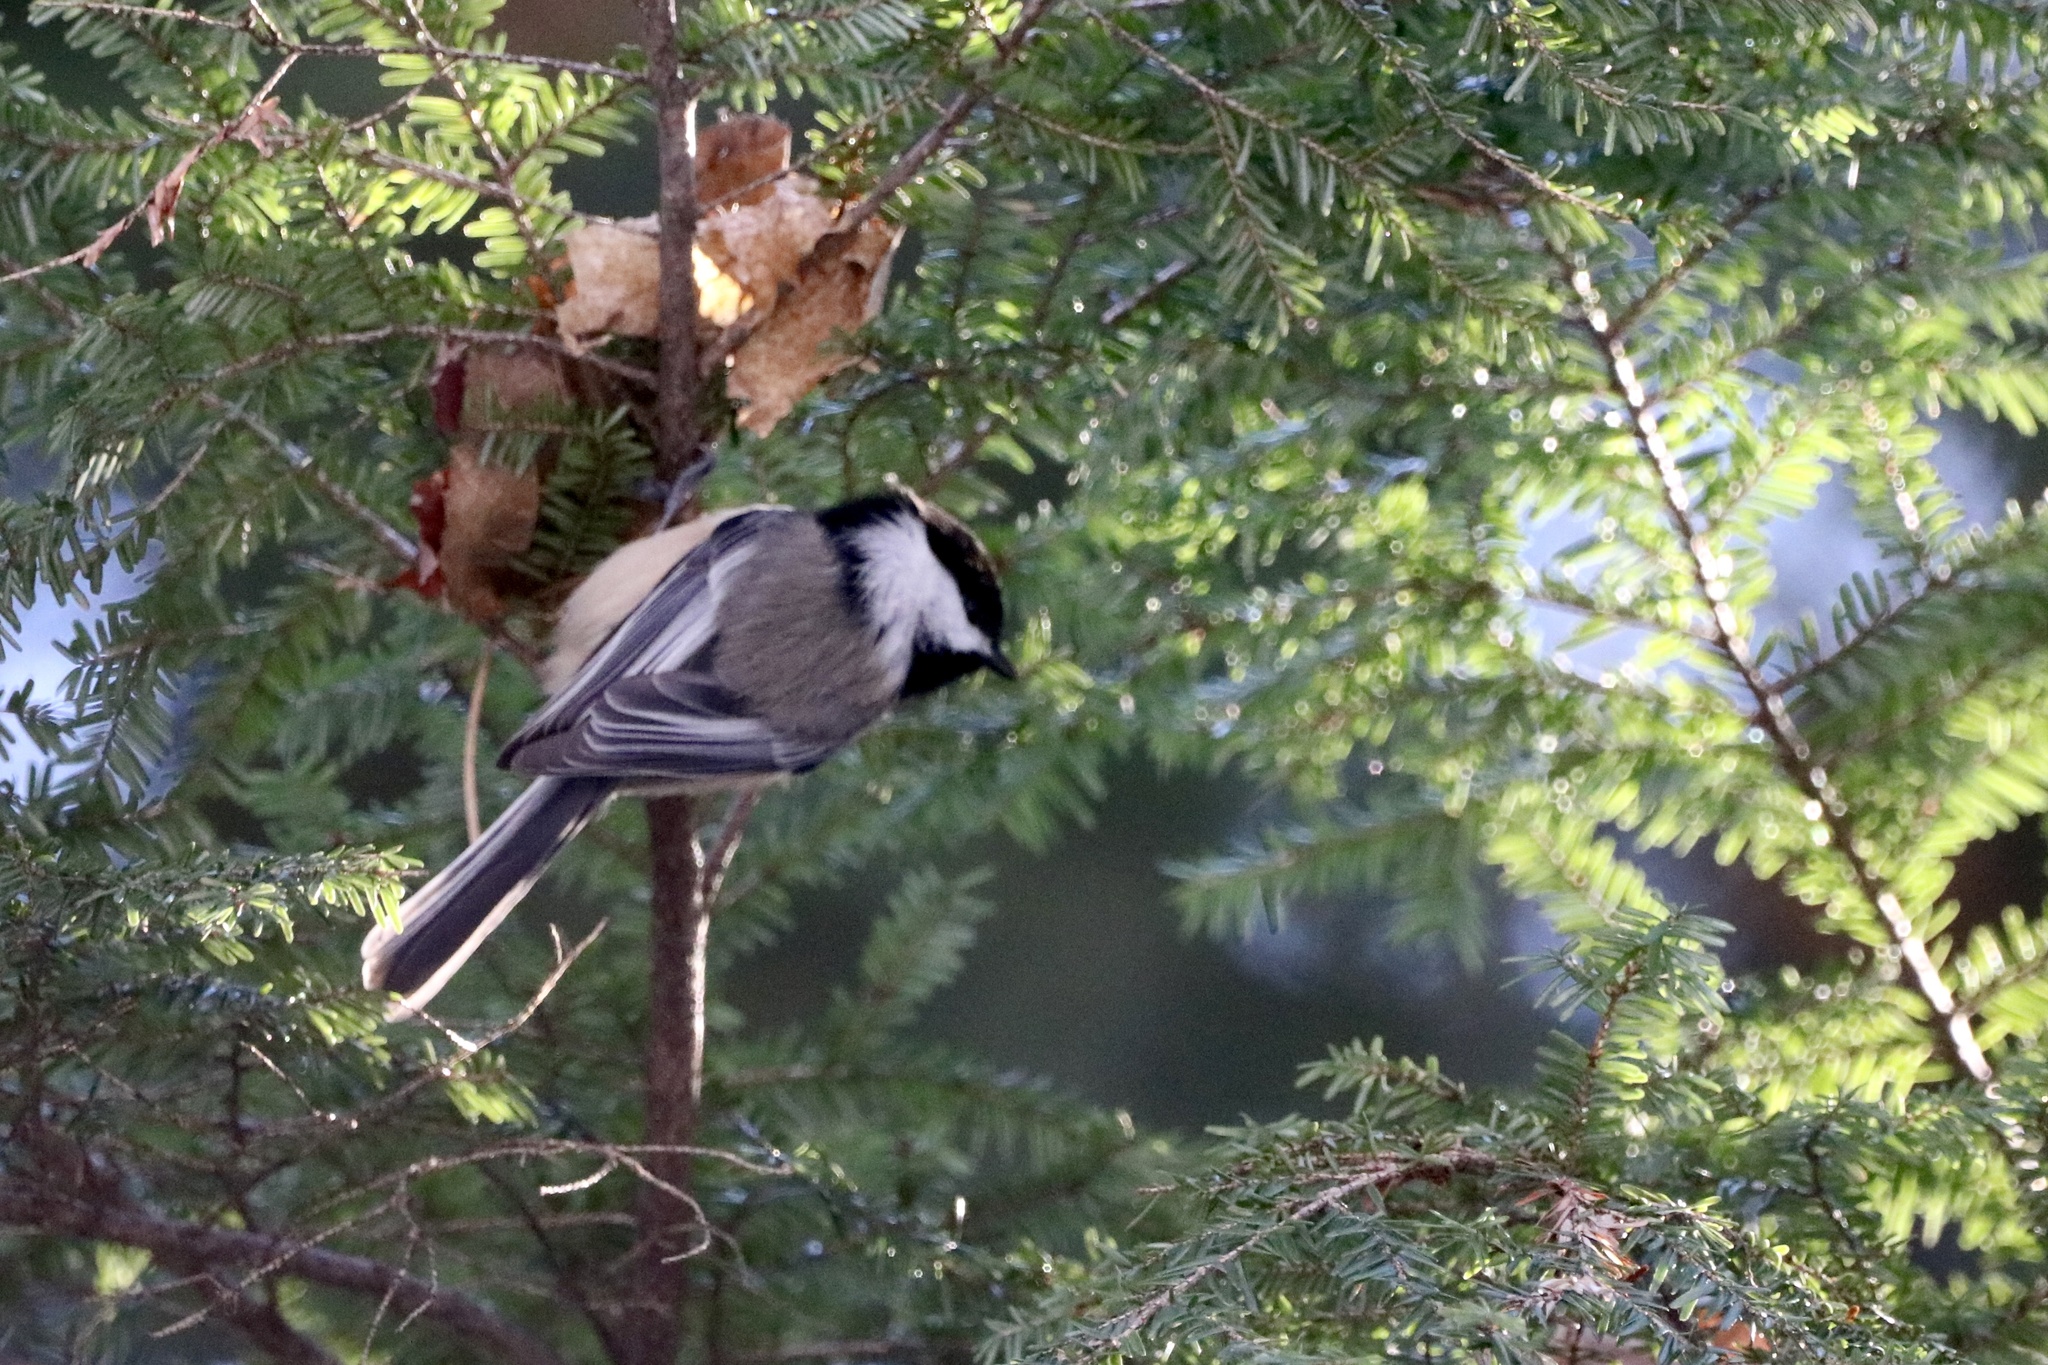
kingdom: Animalia
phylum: Chordata
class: Aves
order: Passeriformes
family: Paridae
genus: Poecile
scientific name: Poecile atricapillus
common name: Black-capped chickadee
